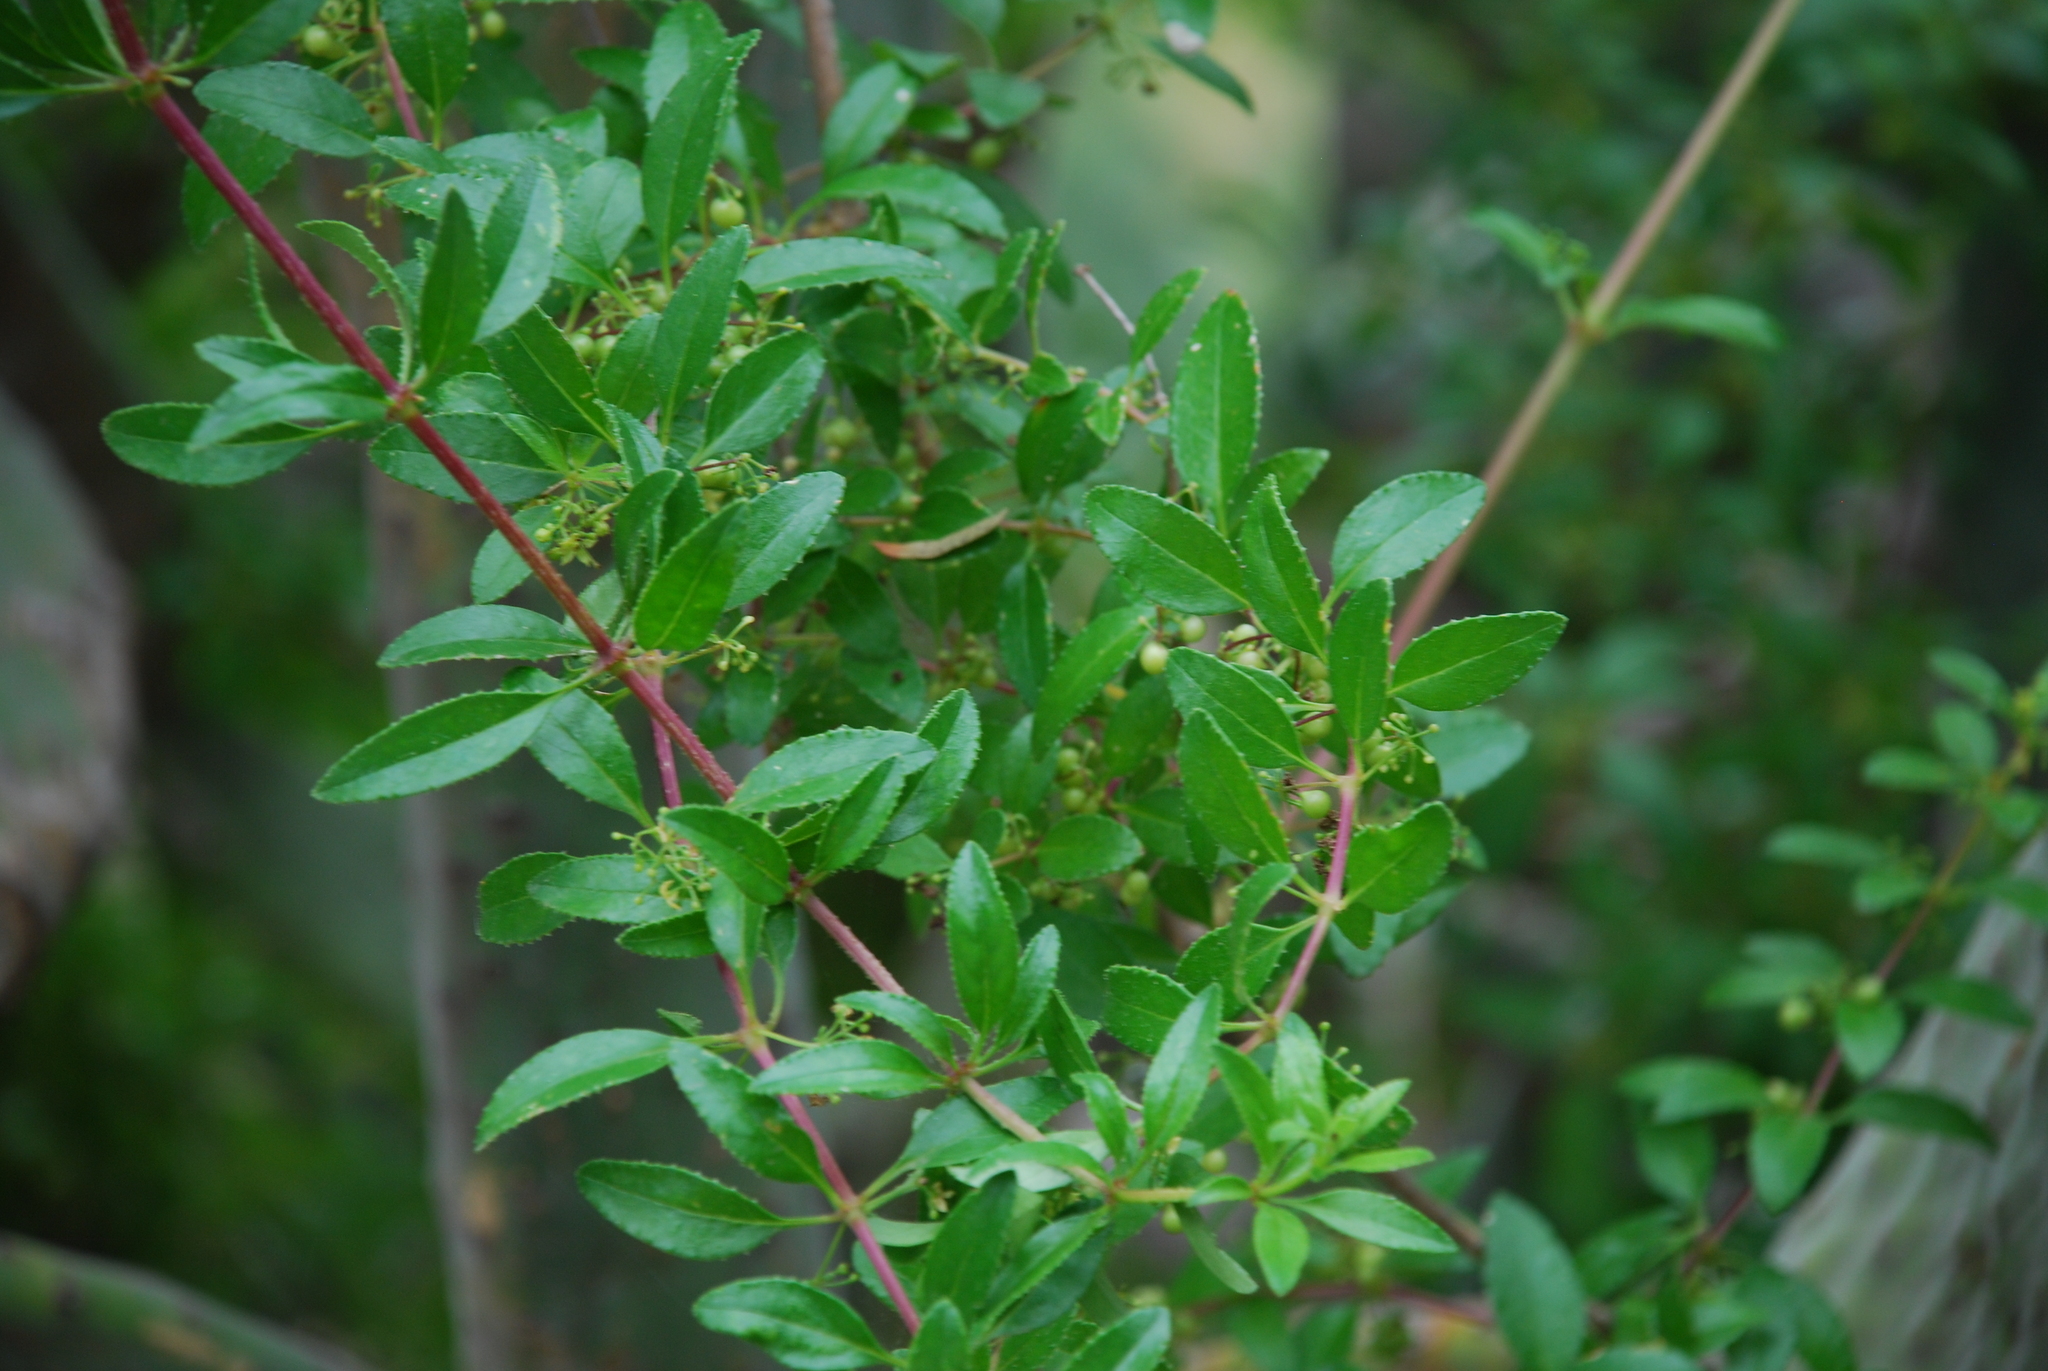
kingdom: Plantae
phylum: Tracheophyta
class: Magnoliopsida
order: Gentianales
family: Rubiaceae
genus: Rubia
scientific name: Rubia fruticosa
